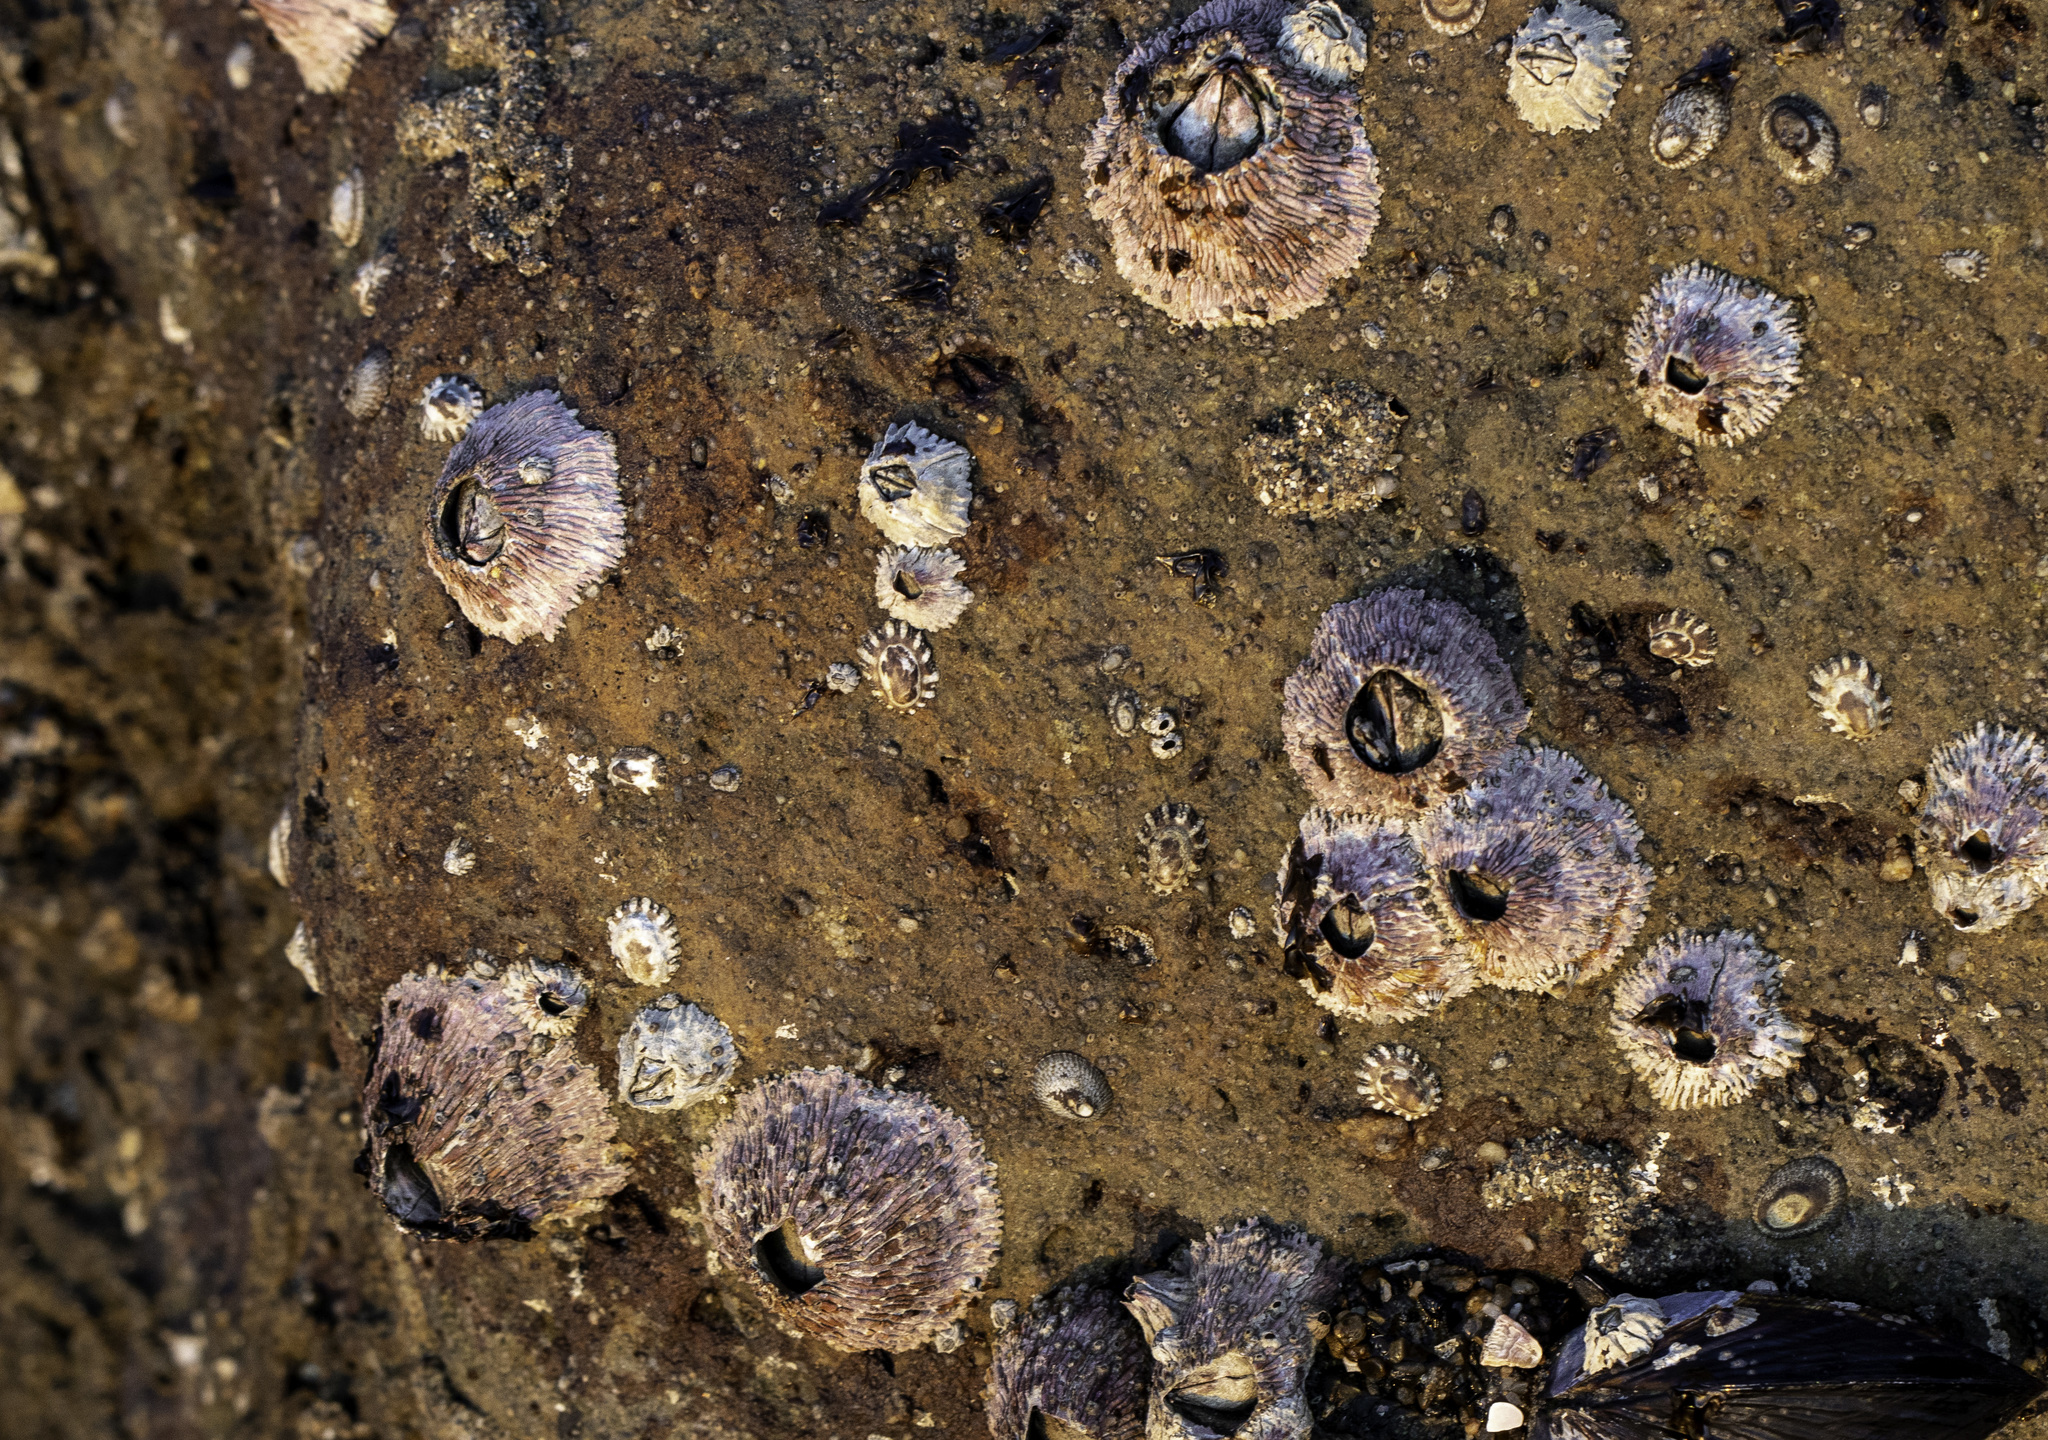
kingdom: Animalia
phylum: Arthropoda
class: Maxillopoda
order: Sessilia
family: Tetraclitidae
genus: Tetraclita
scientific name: Tetraclita rubescens
